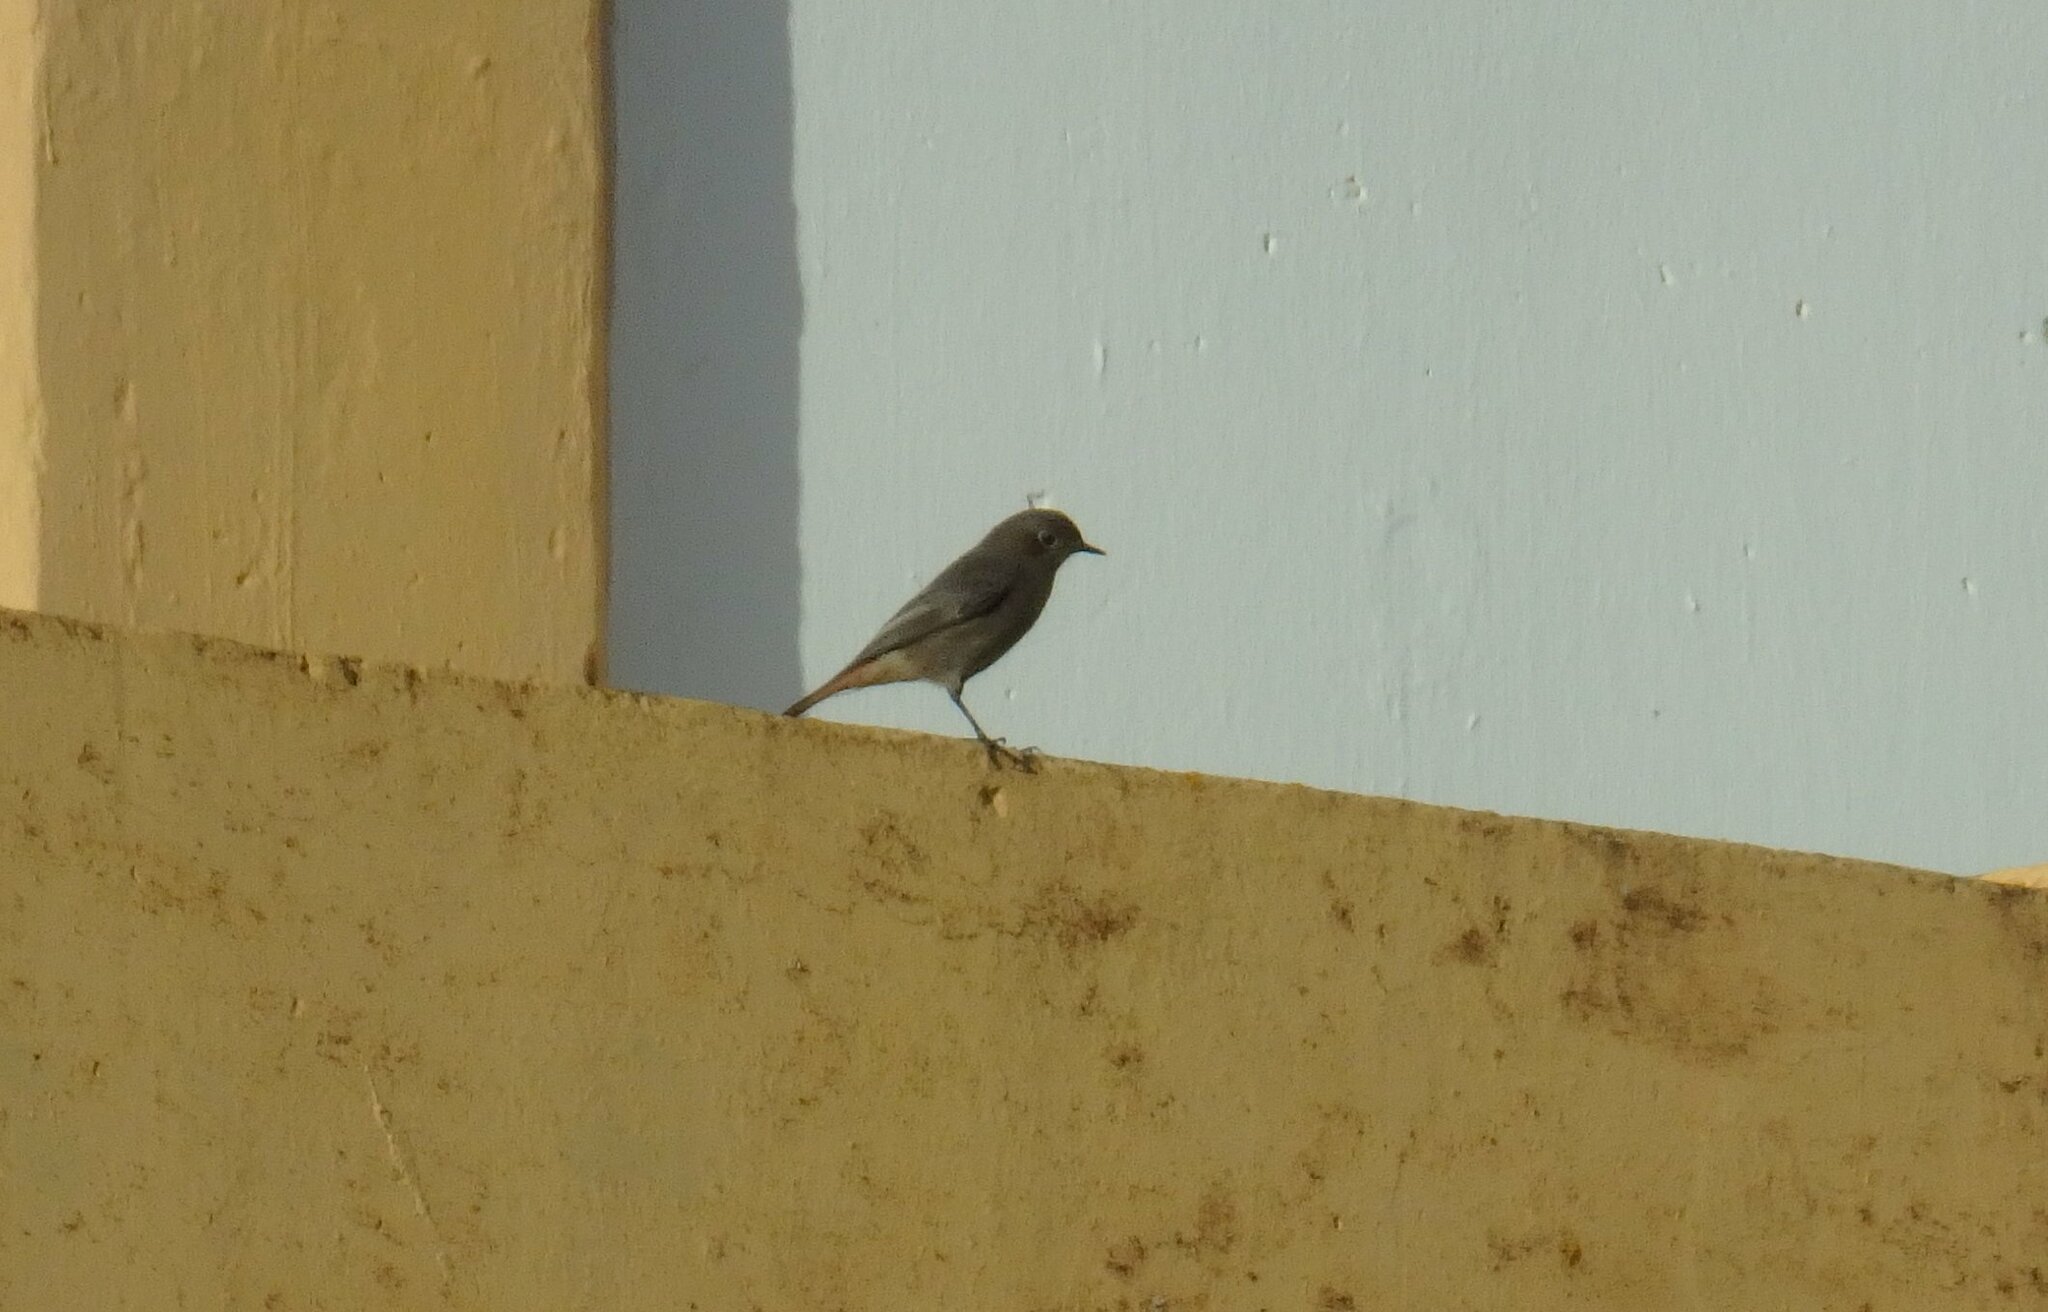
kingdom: Animalia
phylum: Chordata
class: Aves
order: Passeriformes
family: Muscicapidae
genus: Phoenicurus
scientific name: Phoenicurus ochruros
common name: Black redstart
